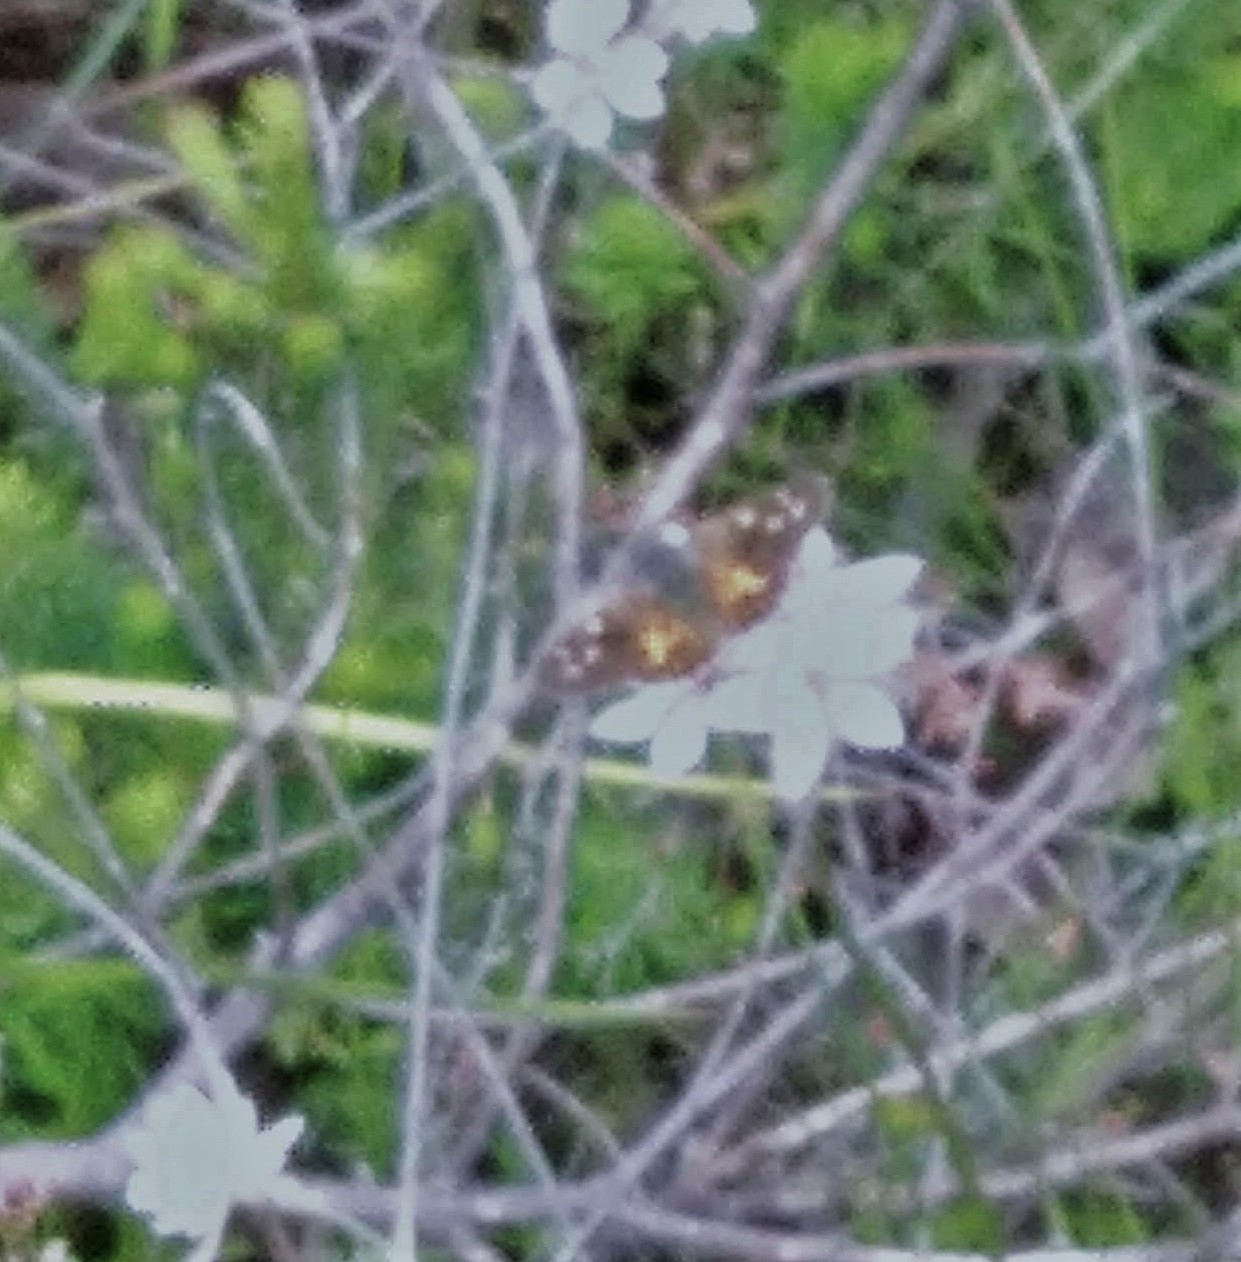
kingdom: Animalia
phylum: Arthropoda
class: Insecta
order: Lepidoptera
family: Hesperiidae
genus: Antipodia
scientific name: Antipodia chaostola
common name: Antipodia skipper
